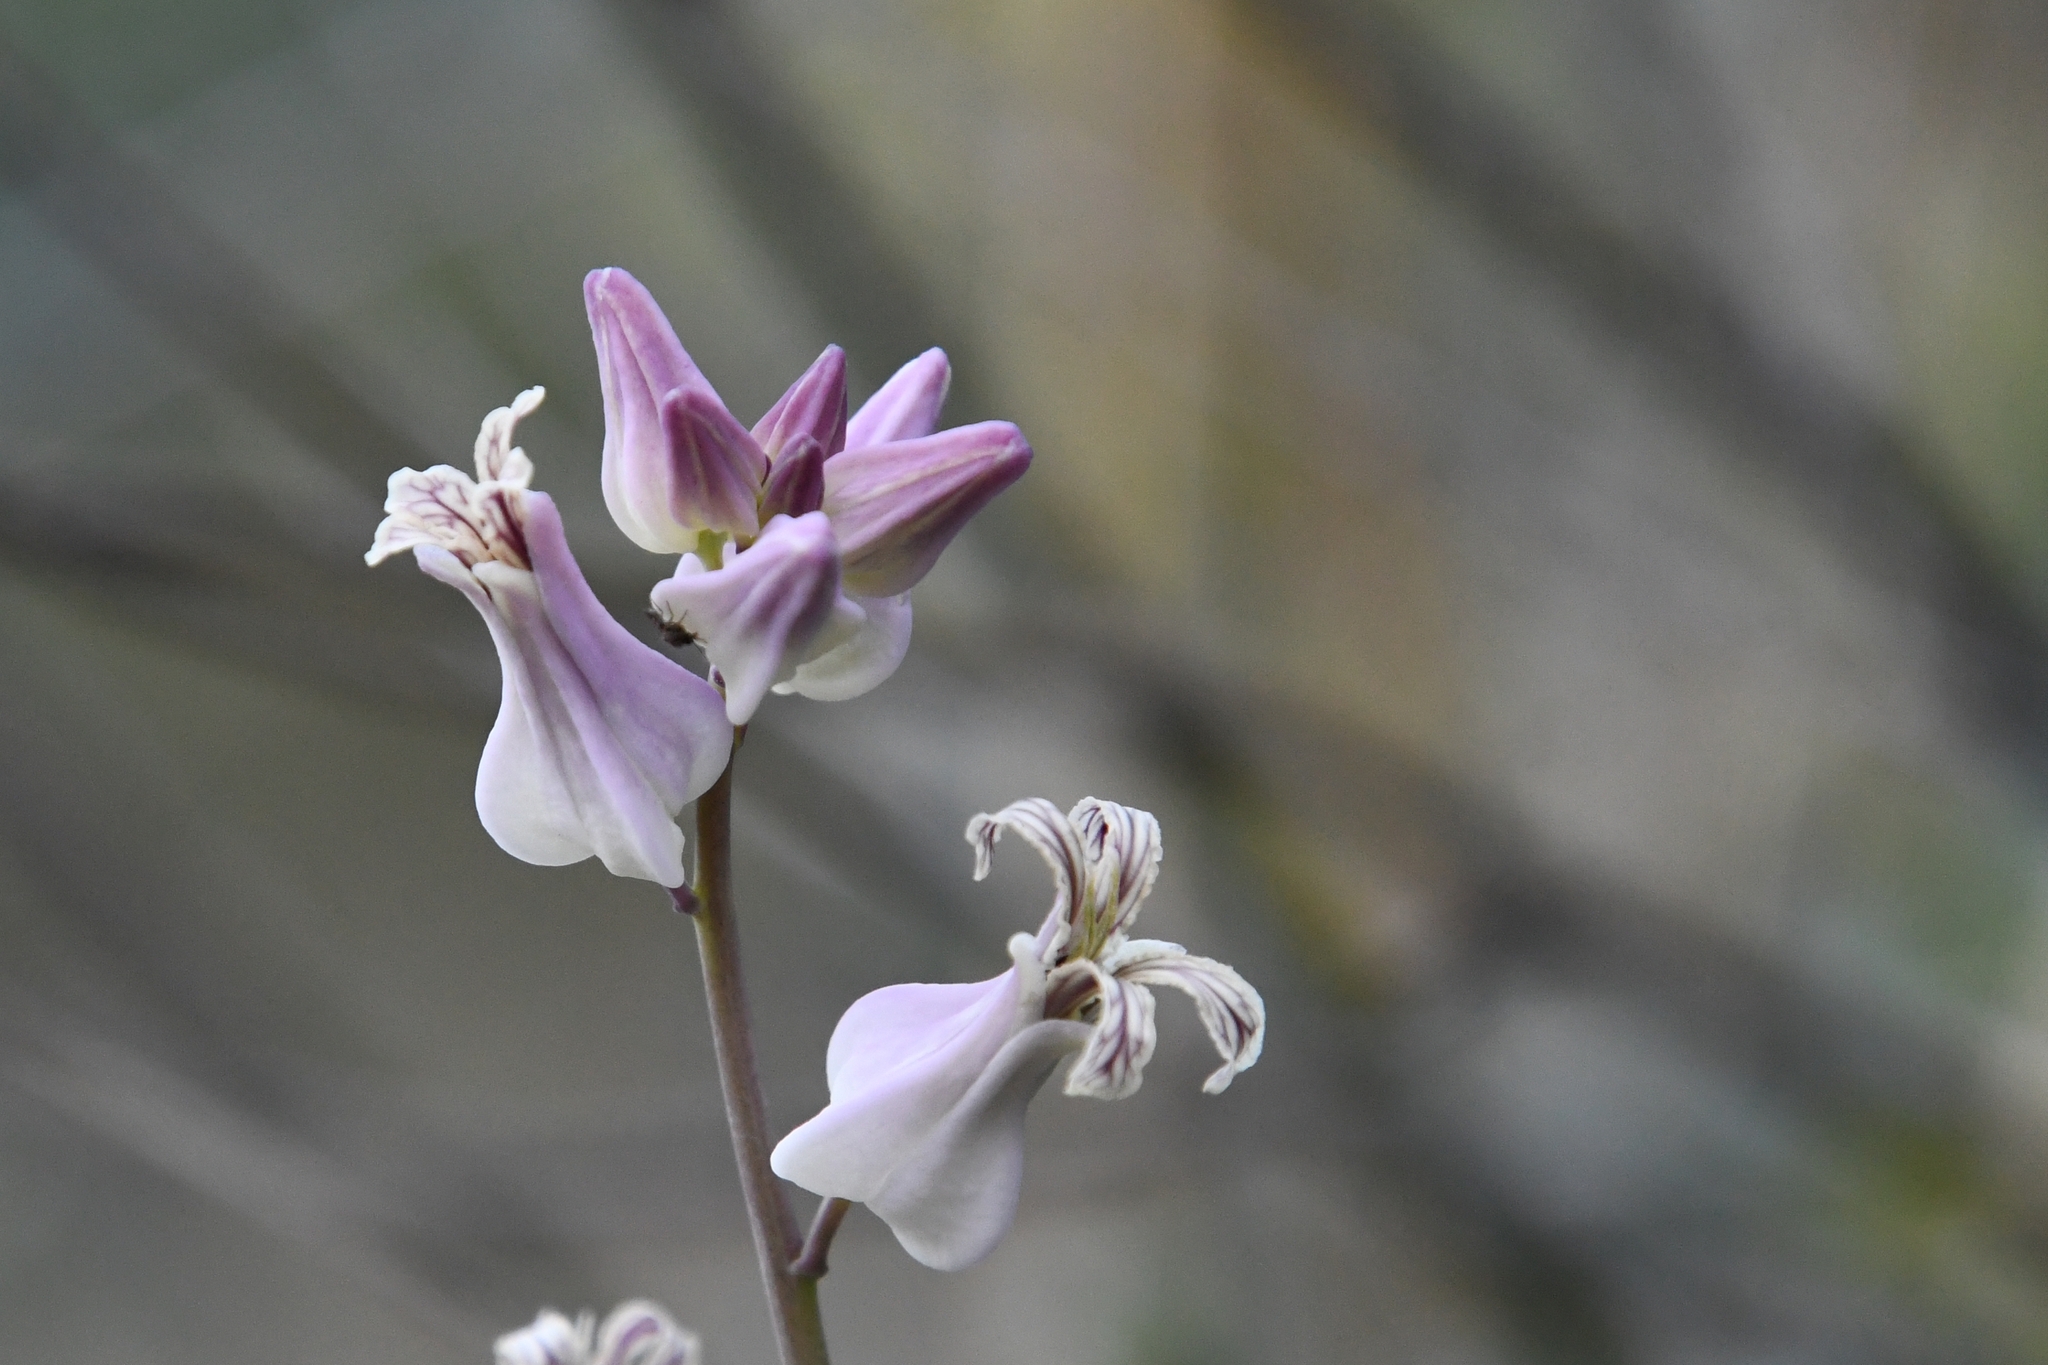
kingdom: Plantae
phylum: Tracheophyta
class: Magnoliopsida
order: Brassicales
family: Brassicaceae
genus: Streptanthus
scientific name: Streptanthus carinatus
